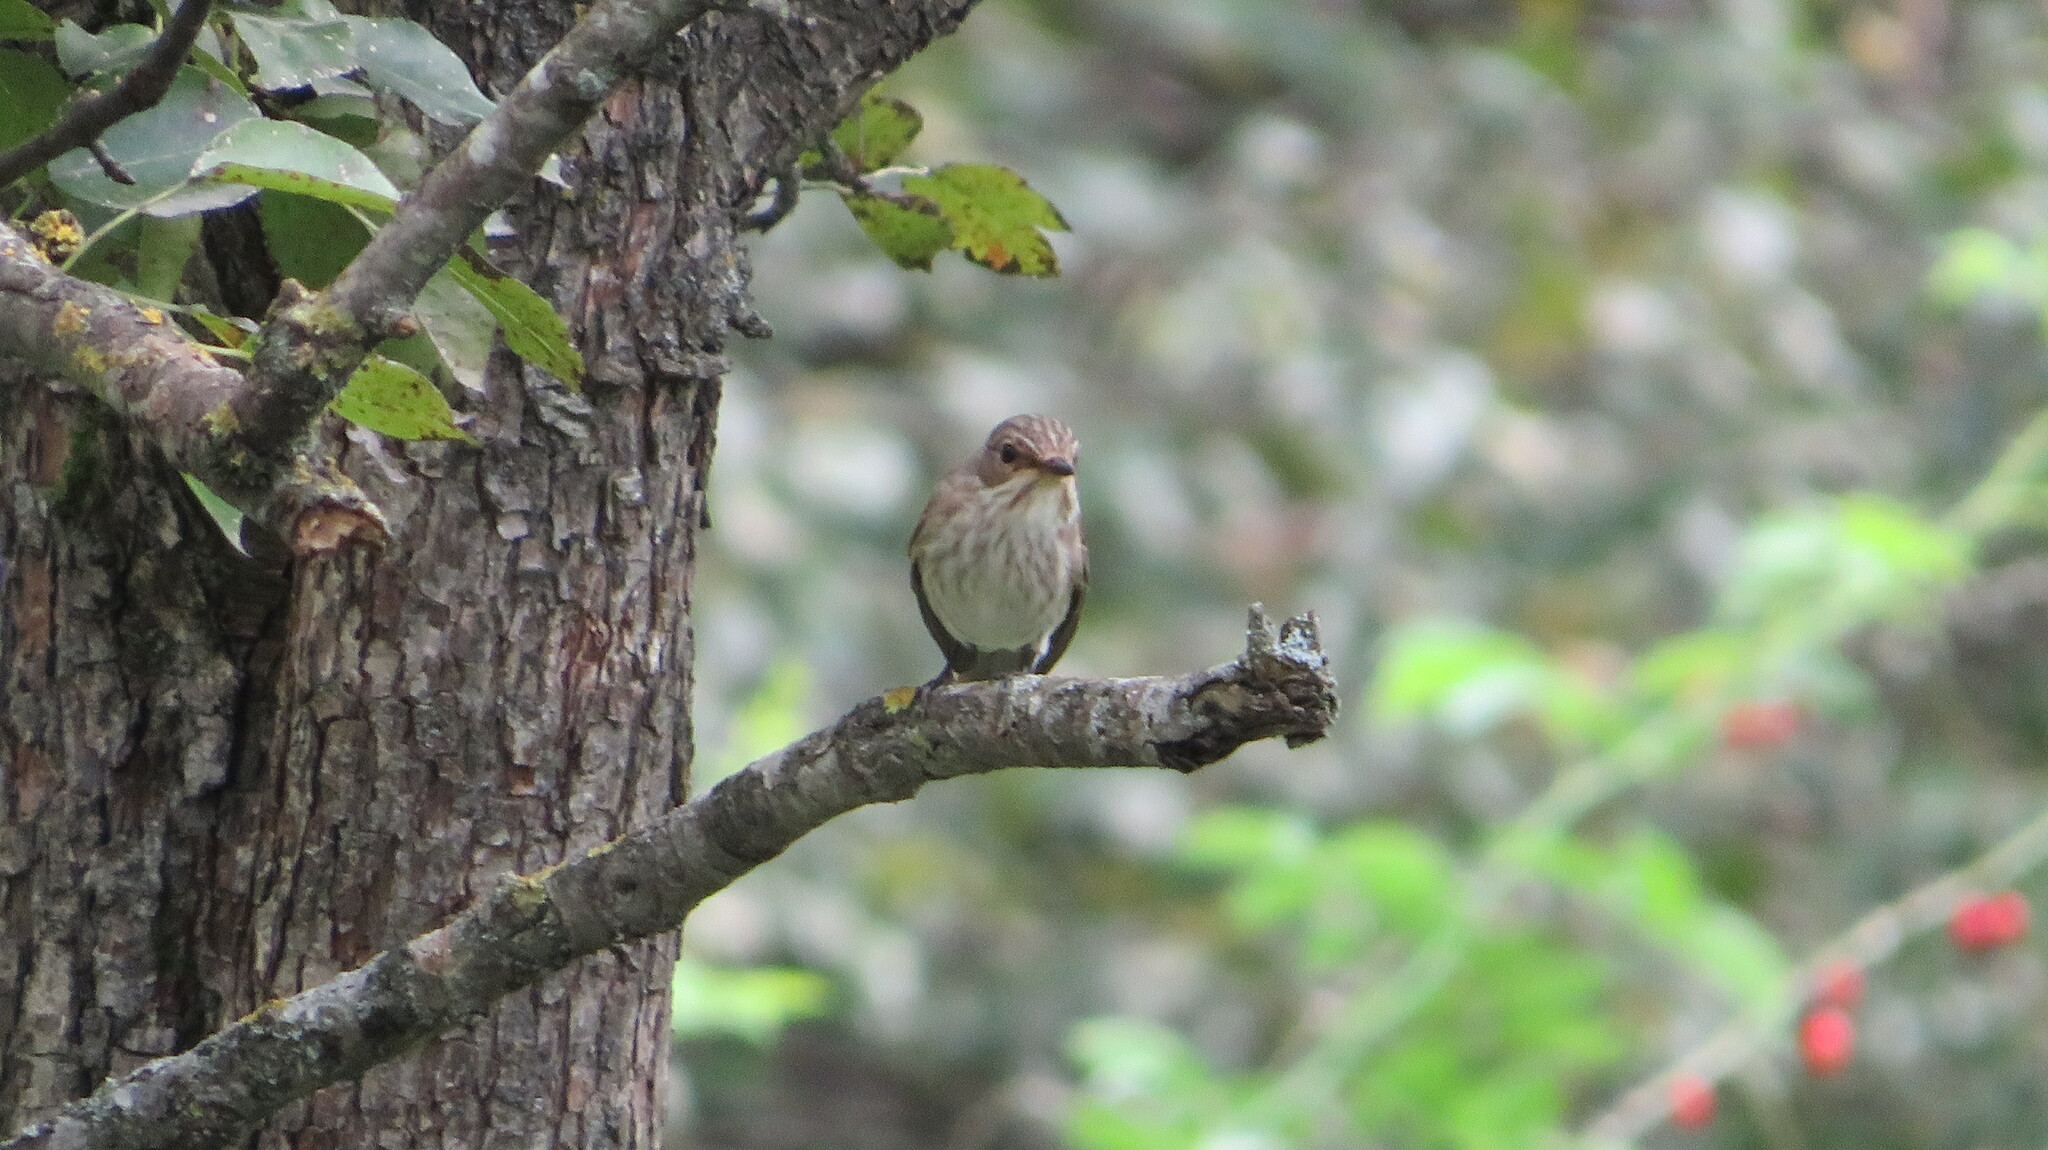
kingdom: Animalia
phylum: Chordata
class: Aves
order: Passeriformes
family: Muscicapidae
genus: Muscicapa
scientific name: Muscicapa striata
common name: Spotted flycatcher
